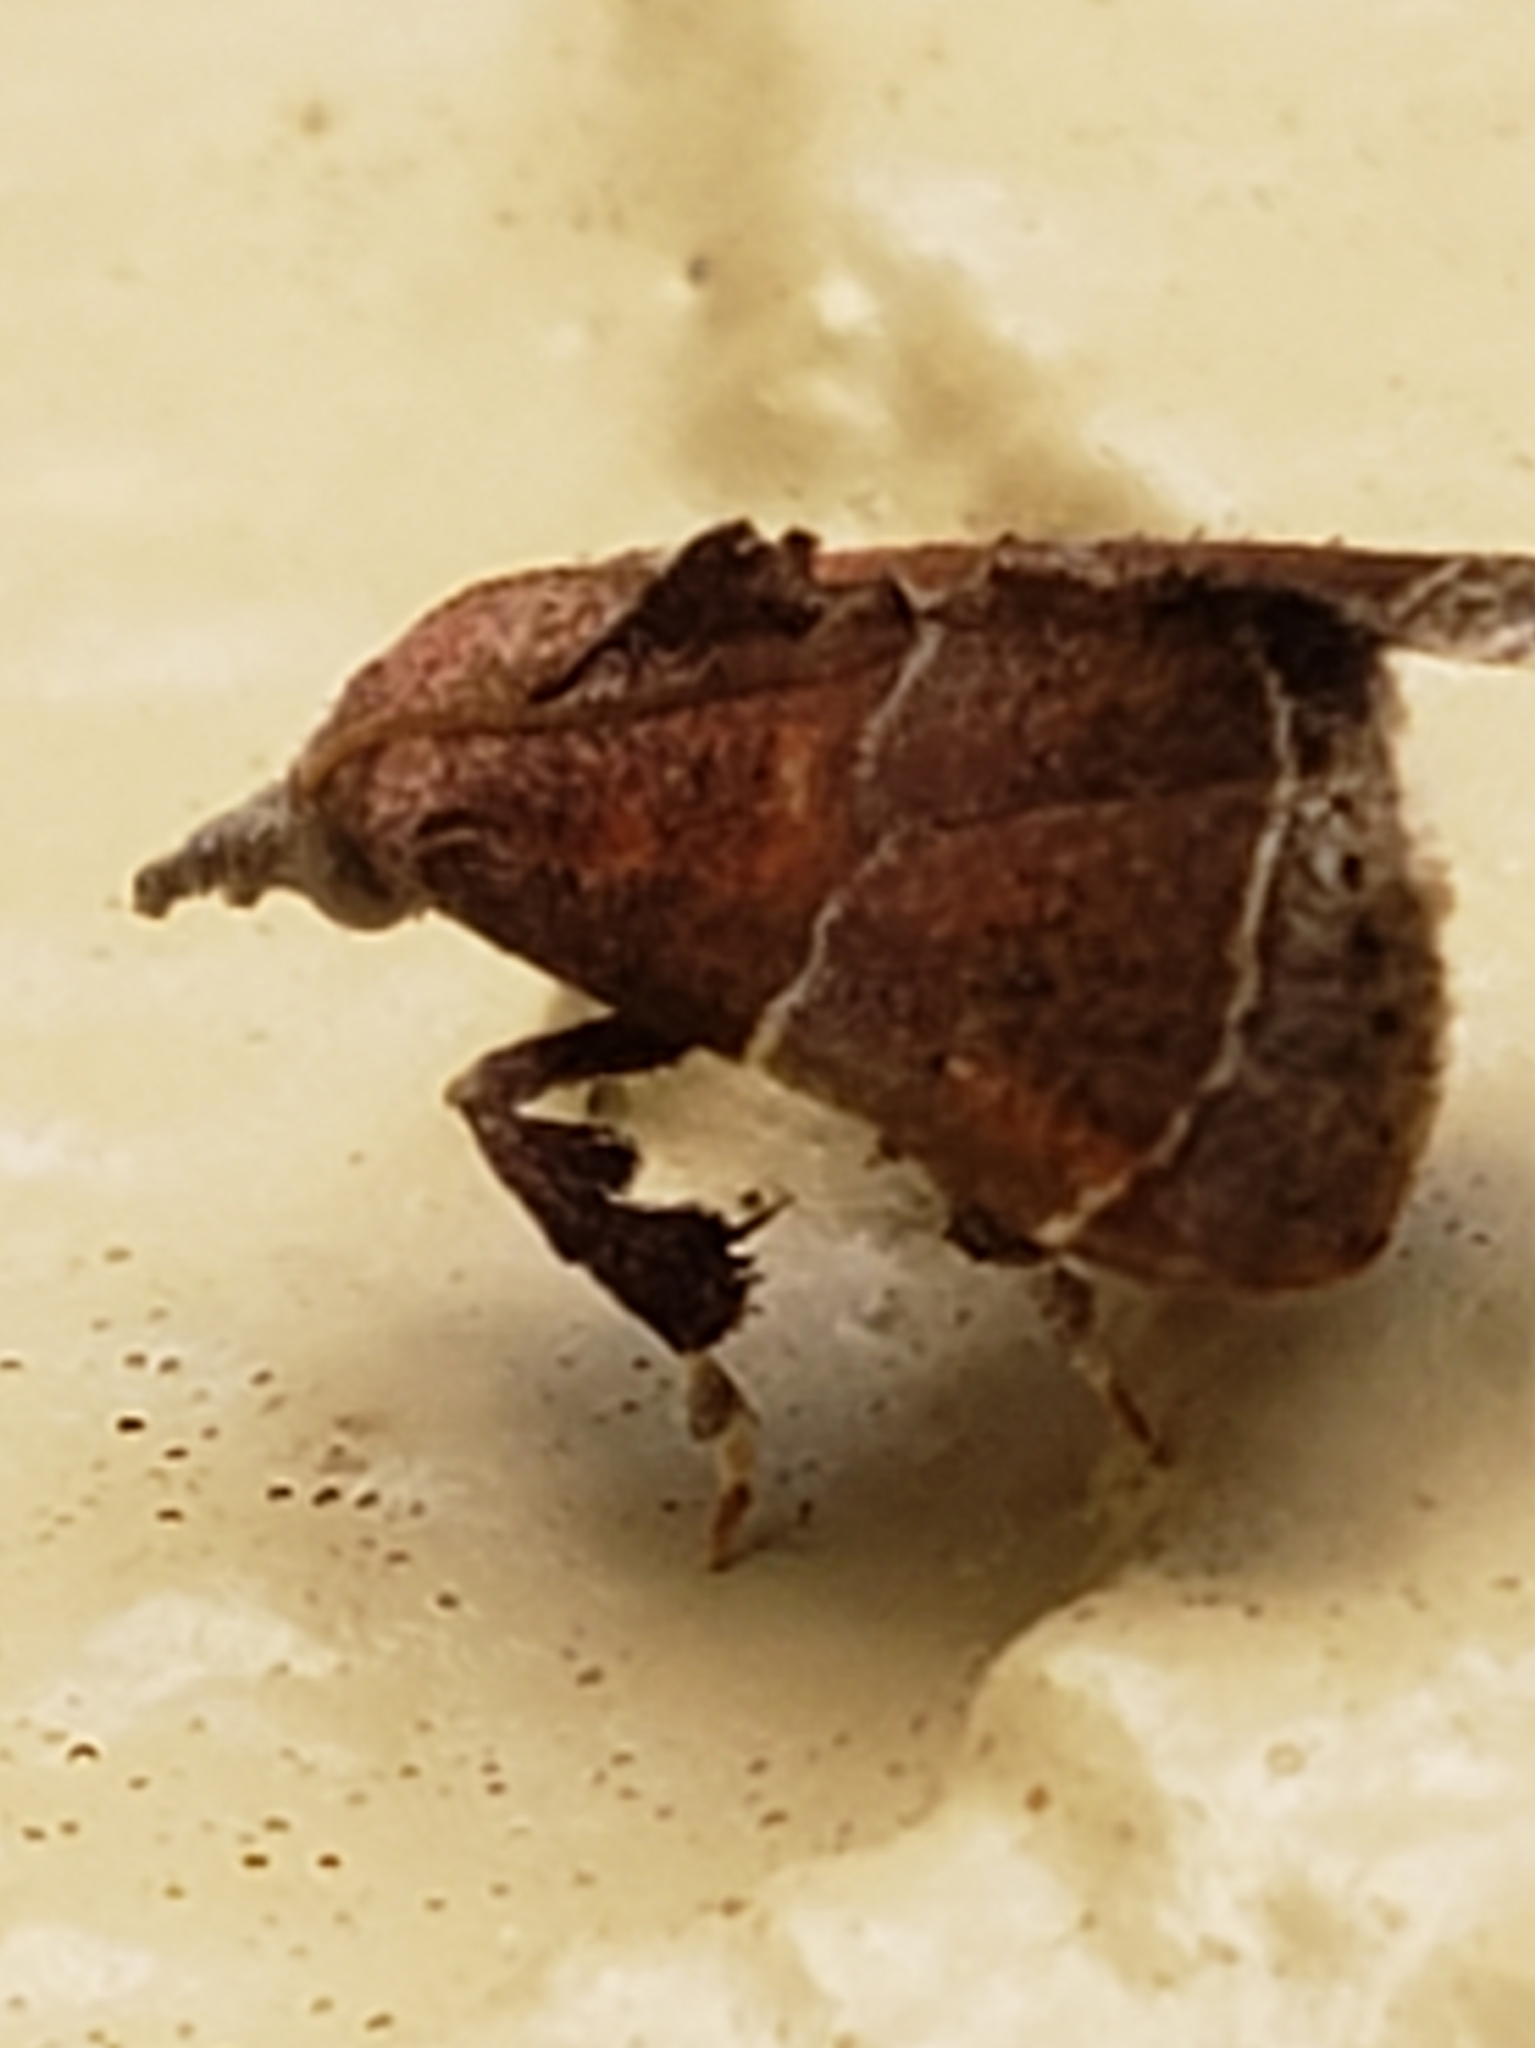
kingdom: Animalia
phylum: Arthropoda
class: Insecta
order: Lepidoptera
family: Pyralidae
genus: Streptopalpia
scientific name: Streptopalpia minusculalis
